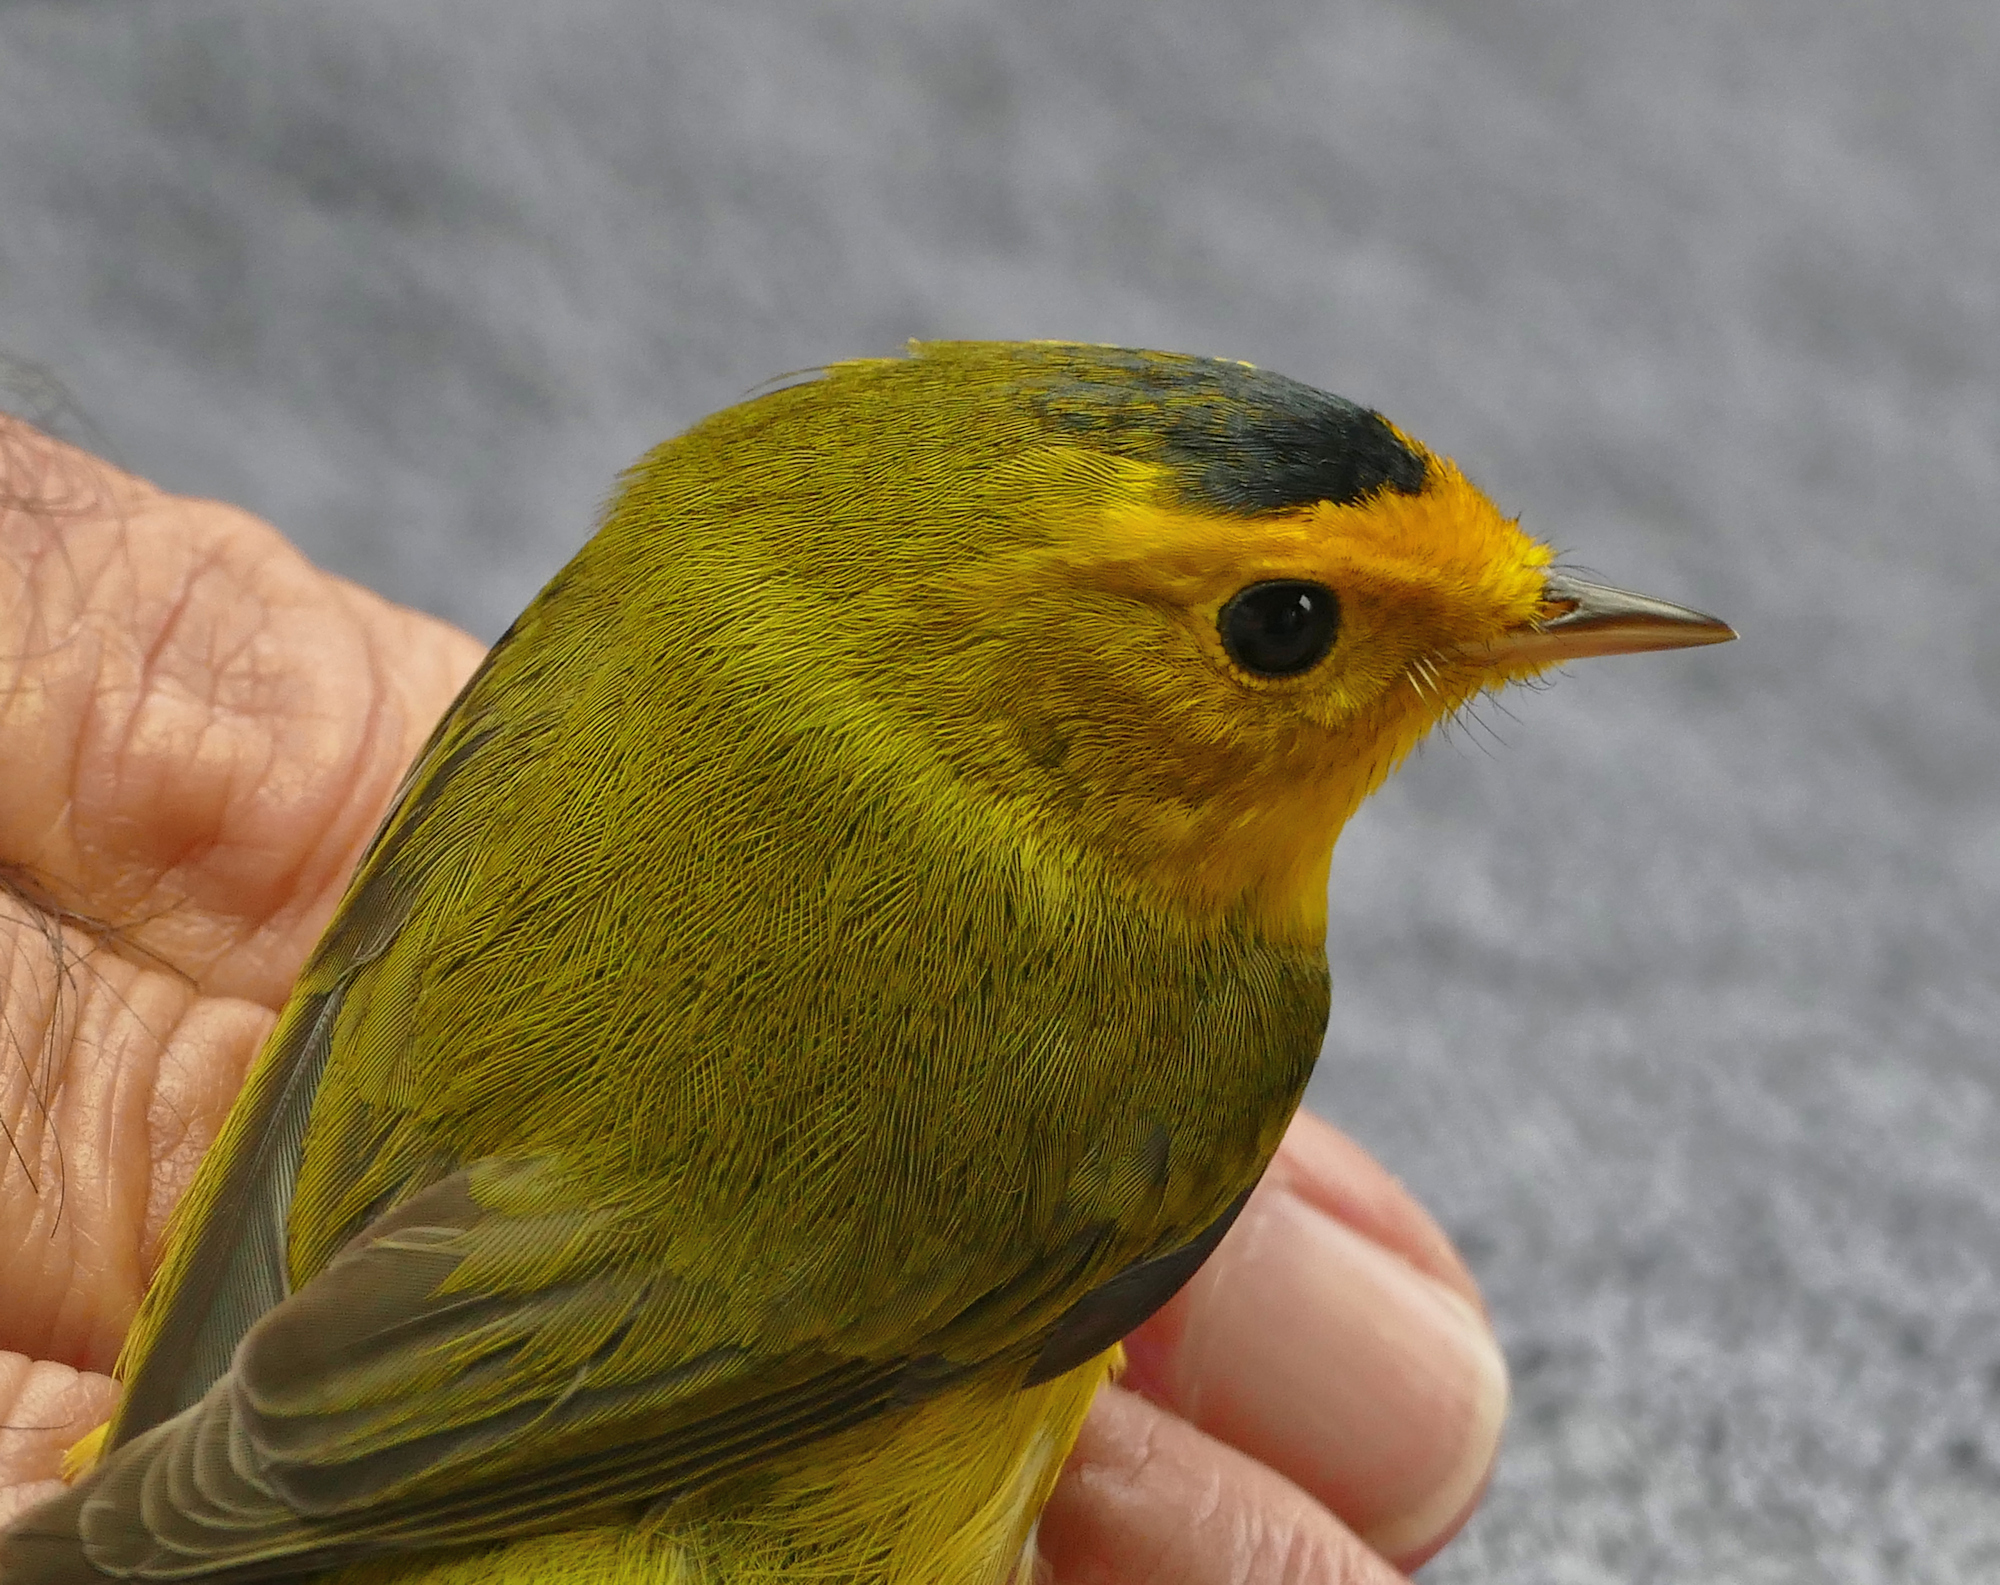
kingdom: Animalia
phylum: Chordata
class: Aves
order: Passeriformes
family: Parulidae
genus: Cardellina
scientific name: Cardellina pusilla
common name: Wilson's warbler
